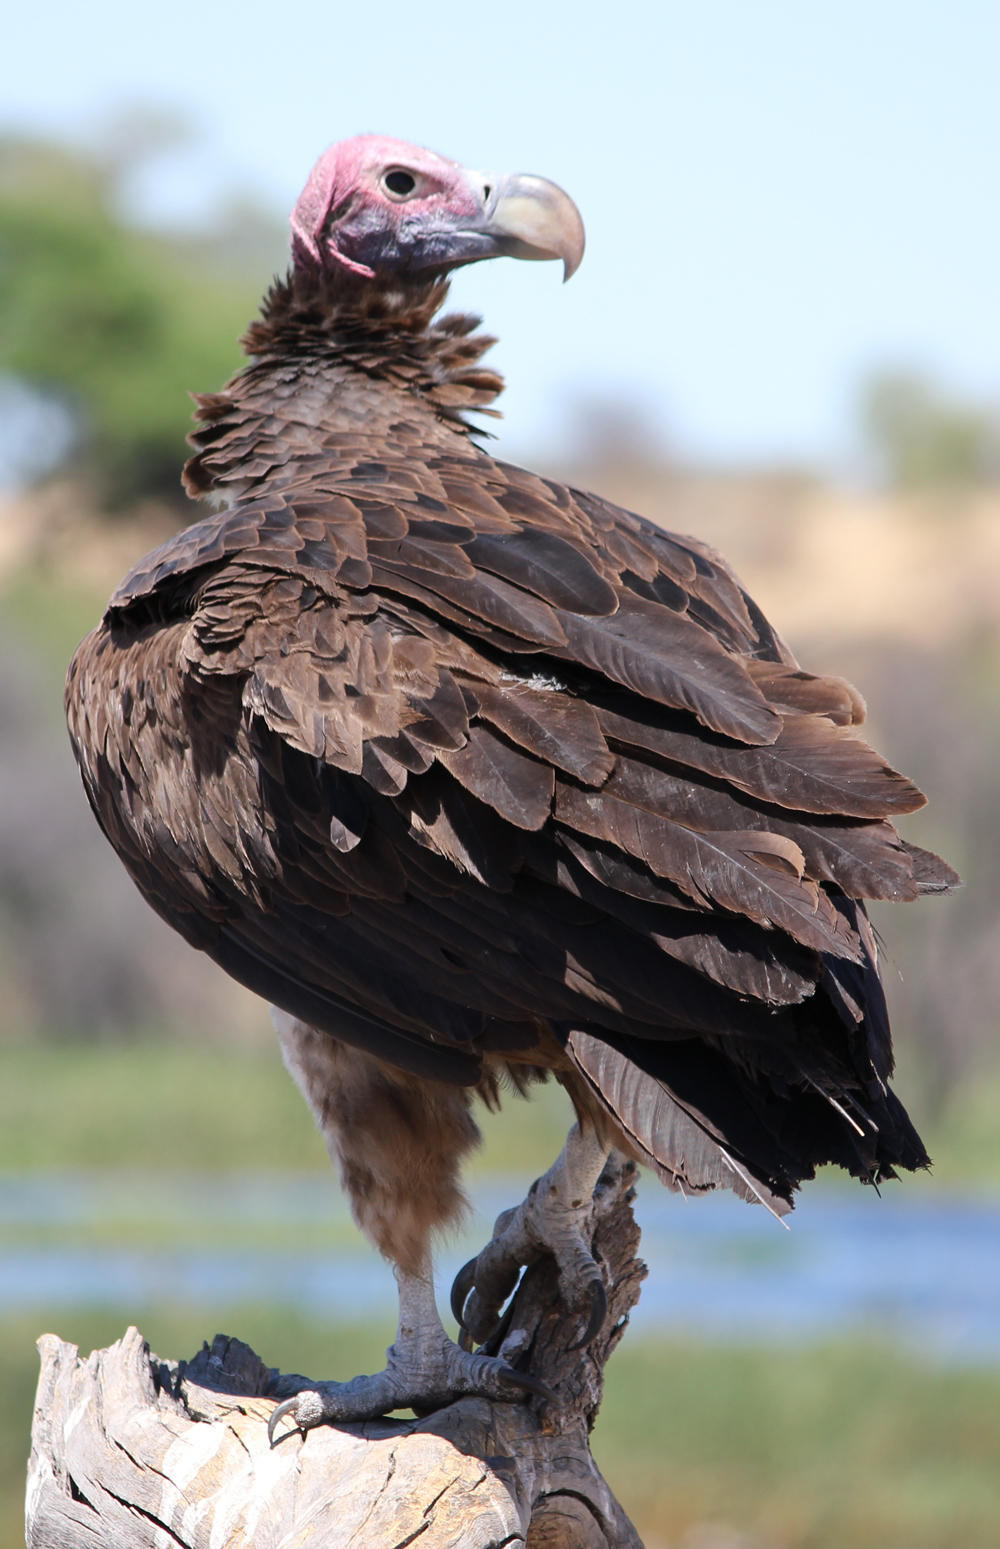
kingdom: Animalia
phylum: Chordata
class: Aves
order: Accipitriformes
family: Accipitridae
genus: Torgos
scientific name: Torgos tracheliotos
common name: Lappet-faced vulture
